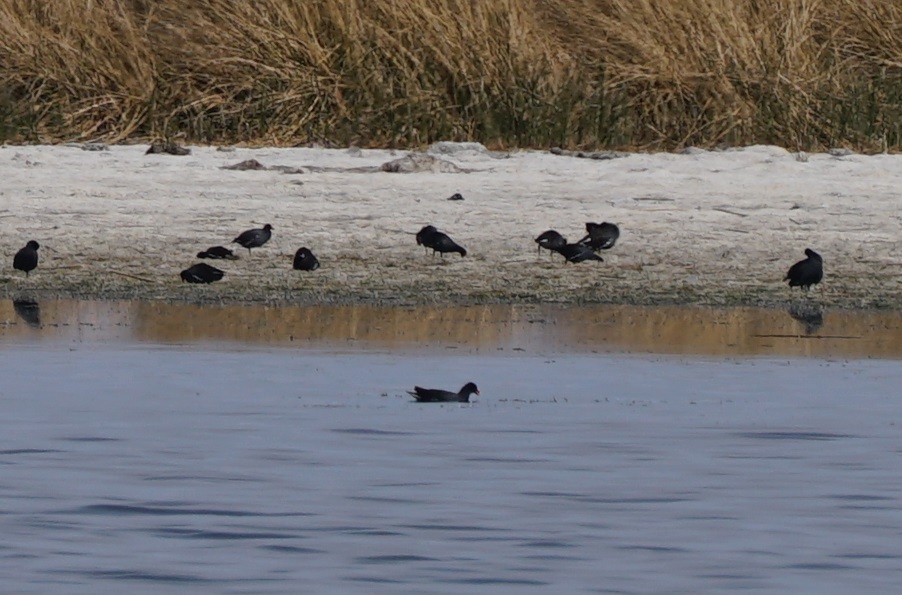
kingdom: Animalia
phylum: Chordata
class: Aves
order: Gruiformes
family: Rallidae
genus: Gallinula
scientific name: Gallinula chloropus
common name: Common moorhen
